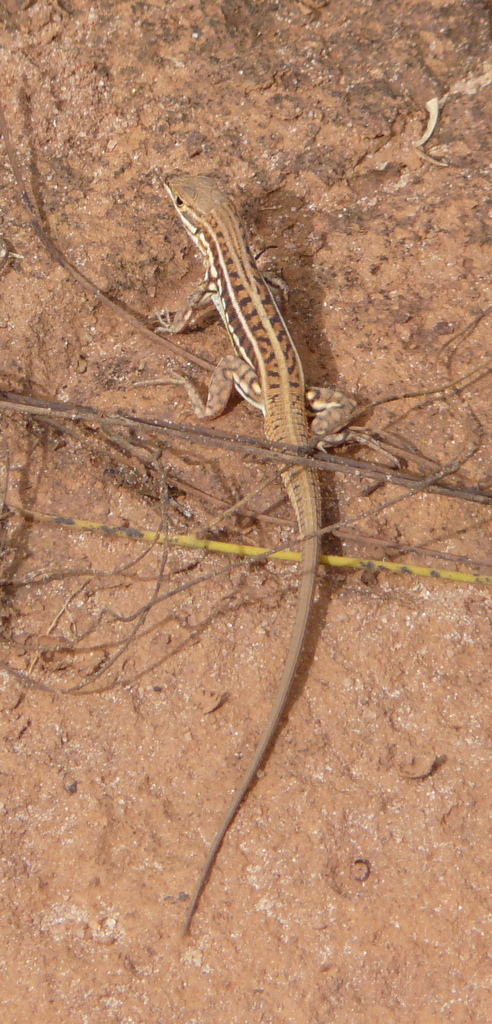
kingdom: Animalia
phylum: Chordata
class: Squamata
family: Lacertidae
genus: Heliobolus
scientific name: Heliobolus spekii
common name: Speke’s sand lizard
